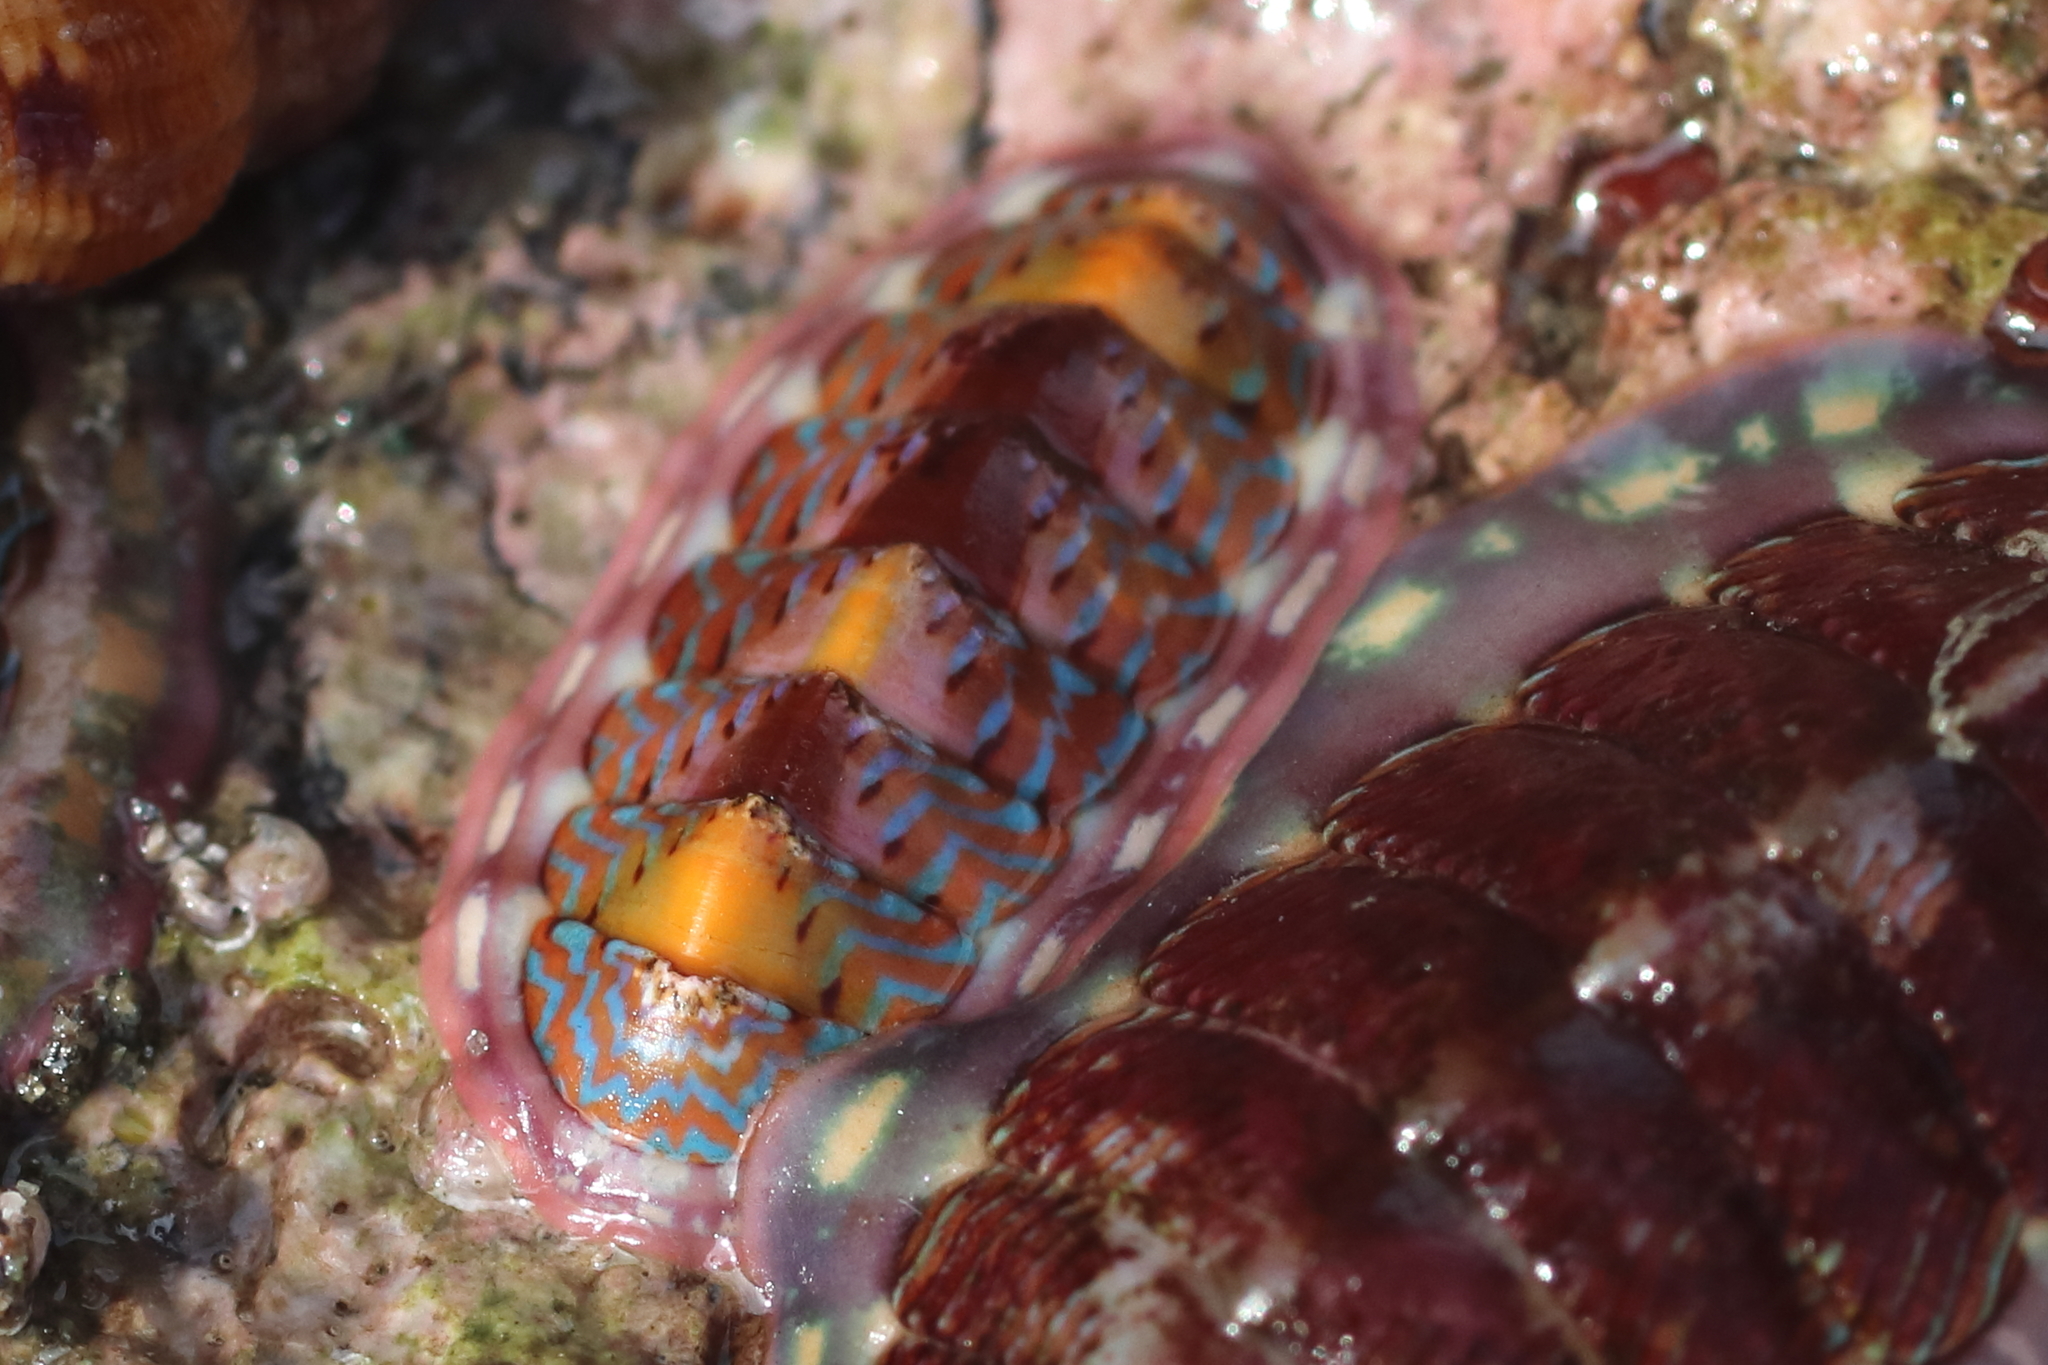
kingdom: Animalia
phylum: Mollusca
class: Polyplacophora
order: Chitonida
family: Tonicellidae
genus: Tonicella
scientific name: Tonicella undocaerulea
